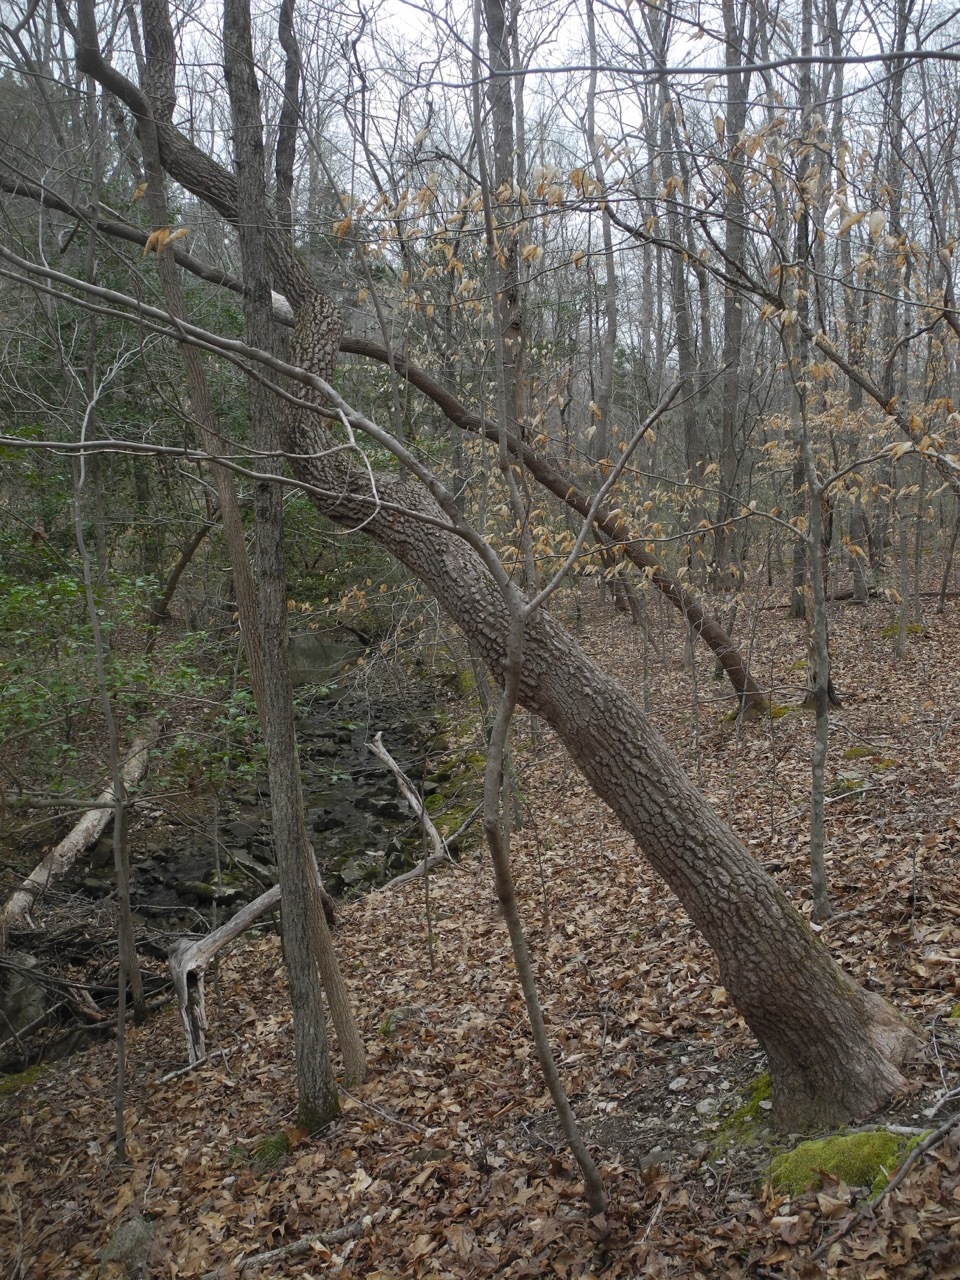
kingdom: Plantae
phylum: Tracheophyta
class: Magnoliopsida
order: Ericales
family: Ericaceae
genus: Oxydendrum
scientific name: Oxydendrum arboreum
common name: Sourwood
